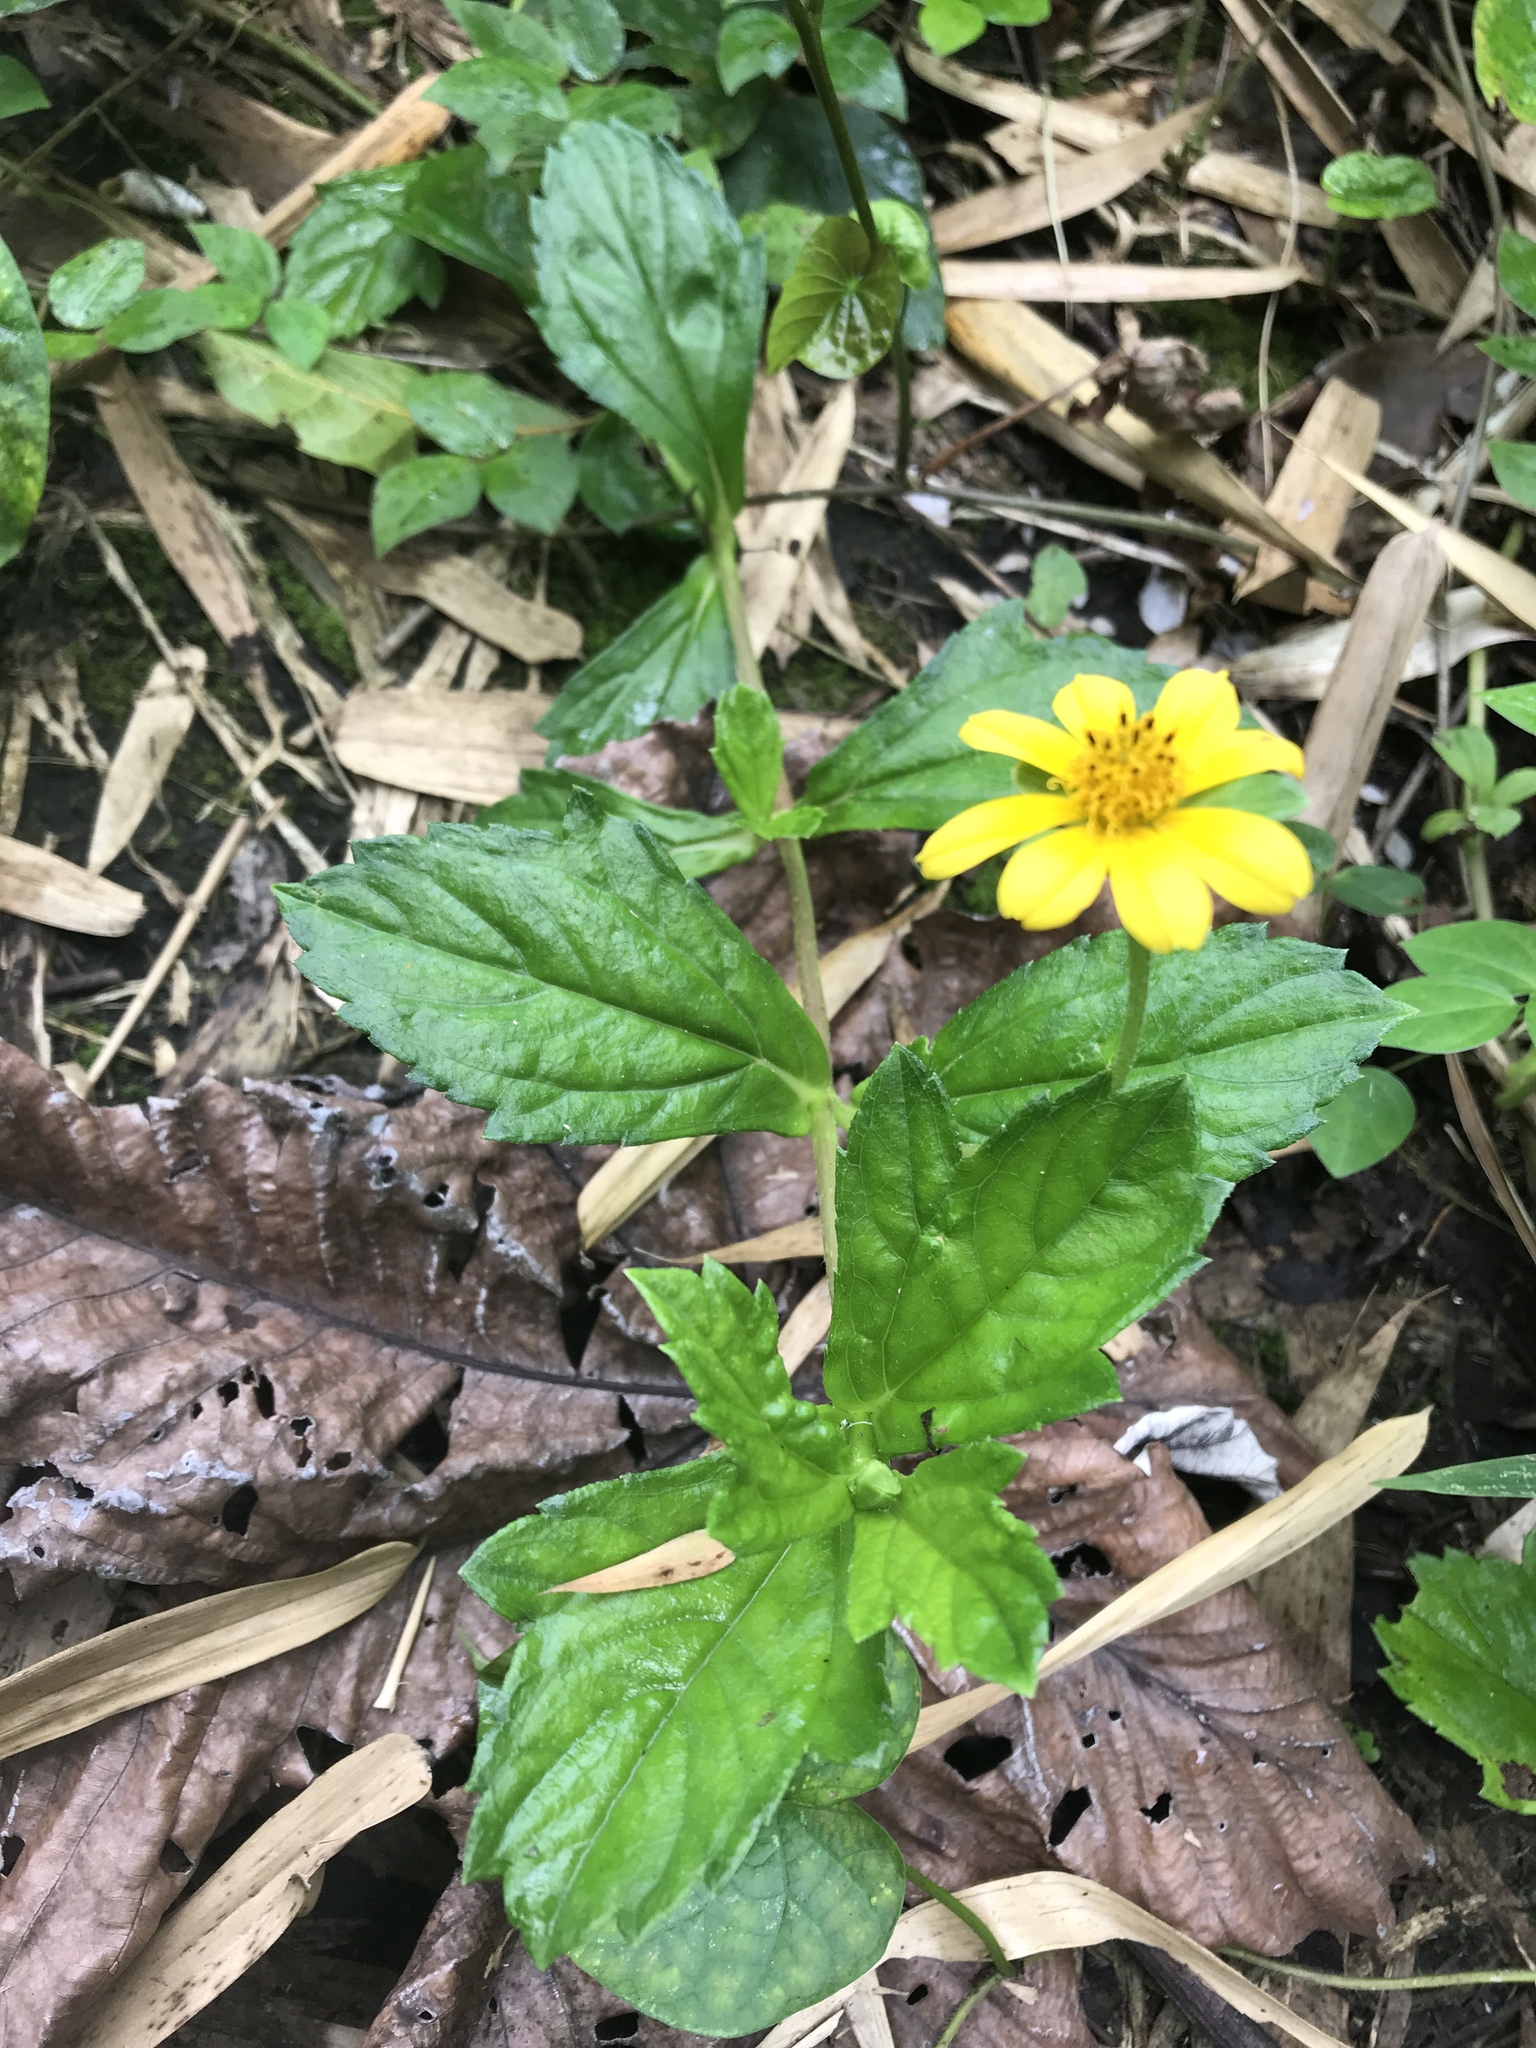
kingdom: Plantae
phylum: Tracheophyta
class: Magnoliopsida
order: Asterales
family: Asteraceae
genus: Sphagneticola
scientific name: Sphagneticola trilobata
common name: Bay biscayne creeping-oxeye
